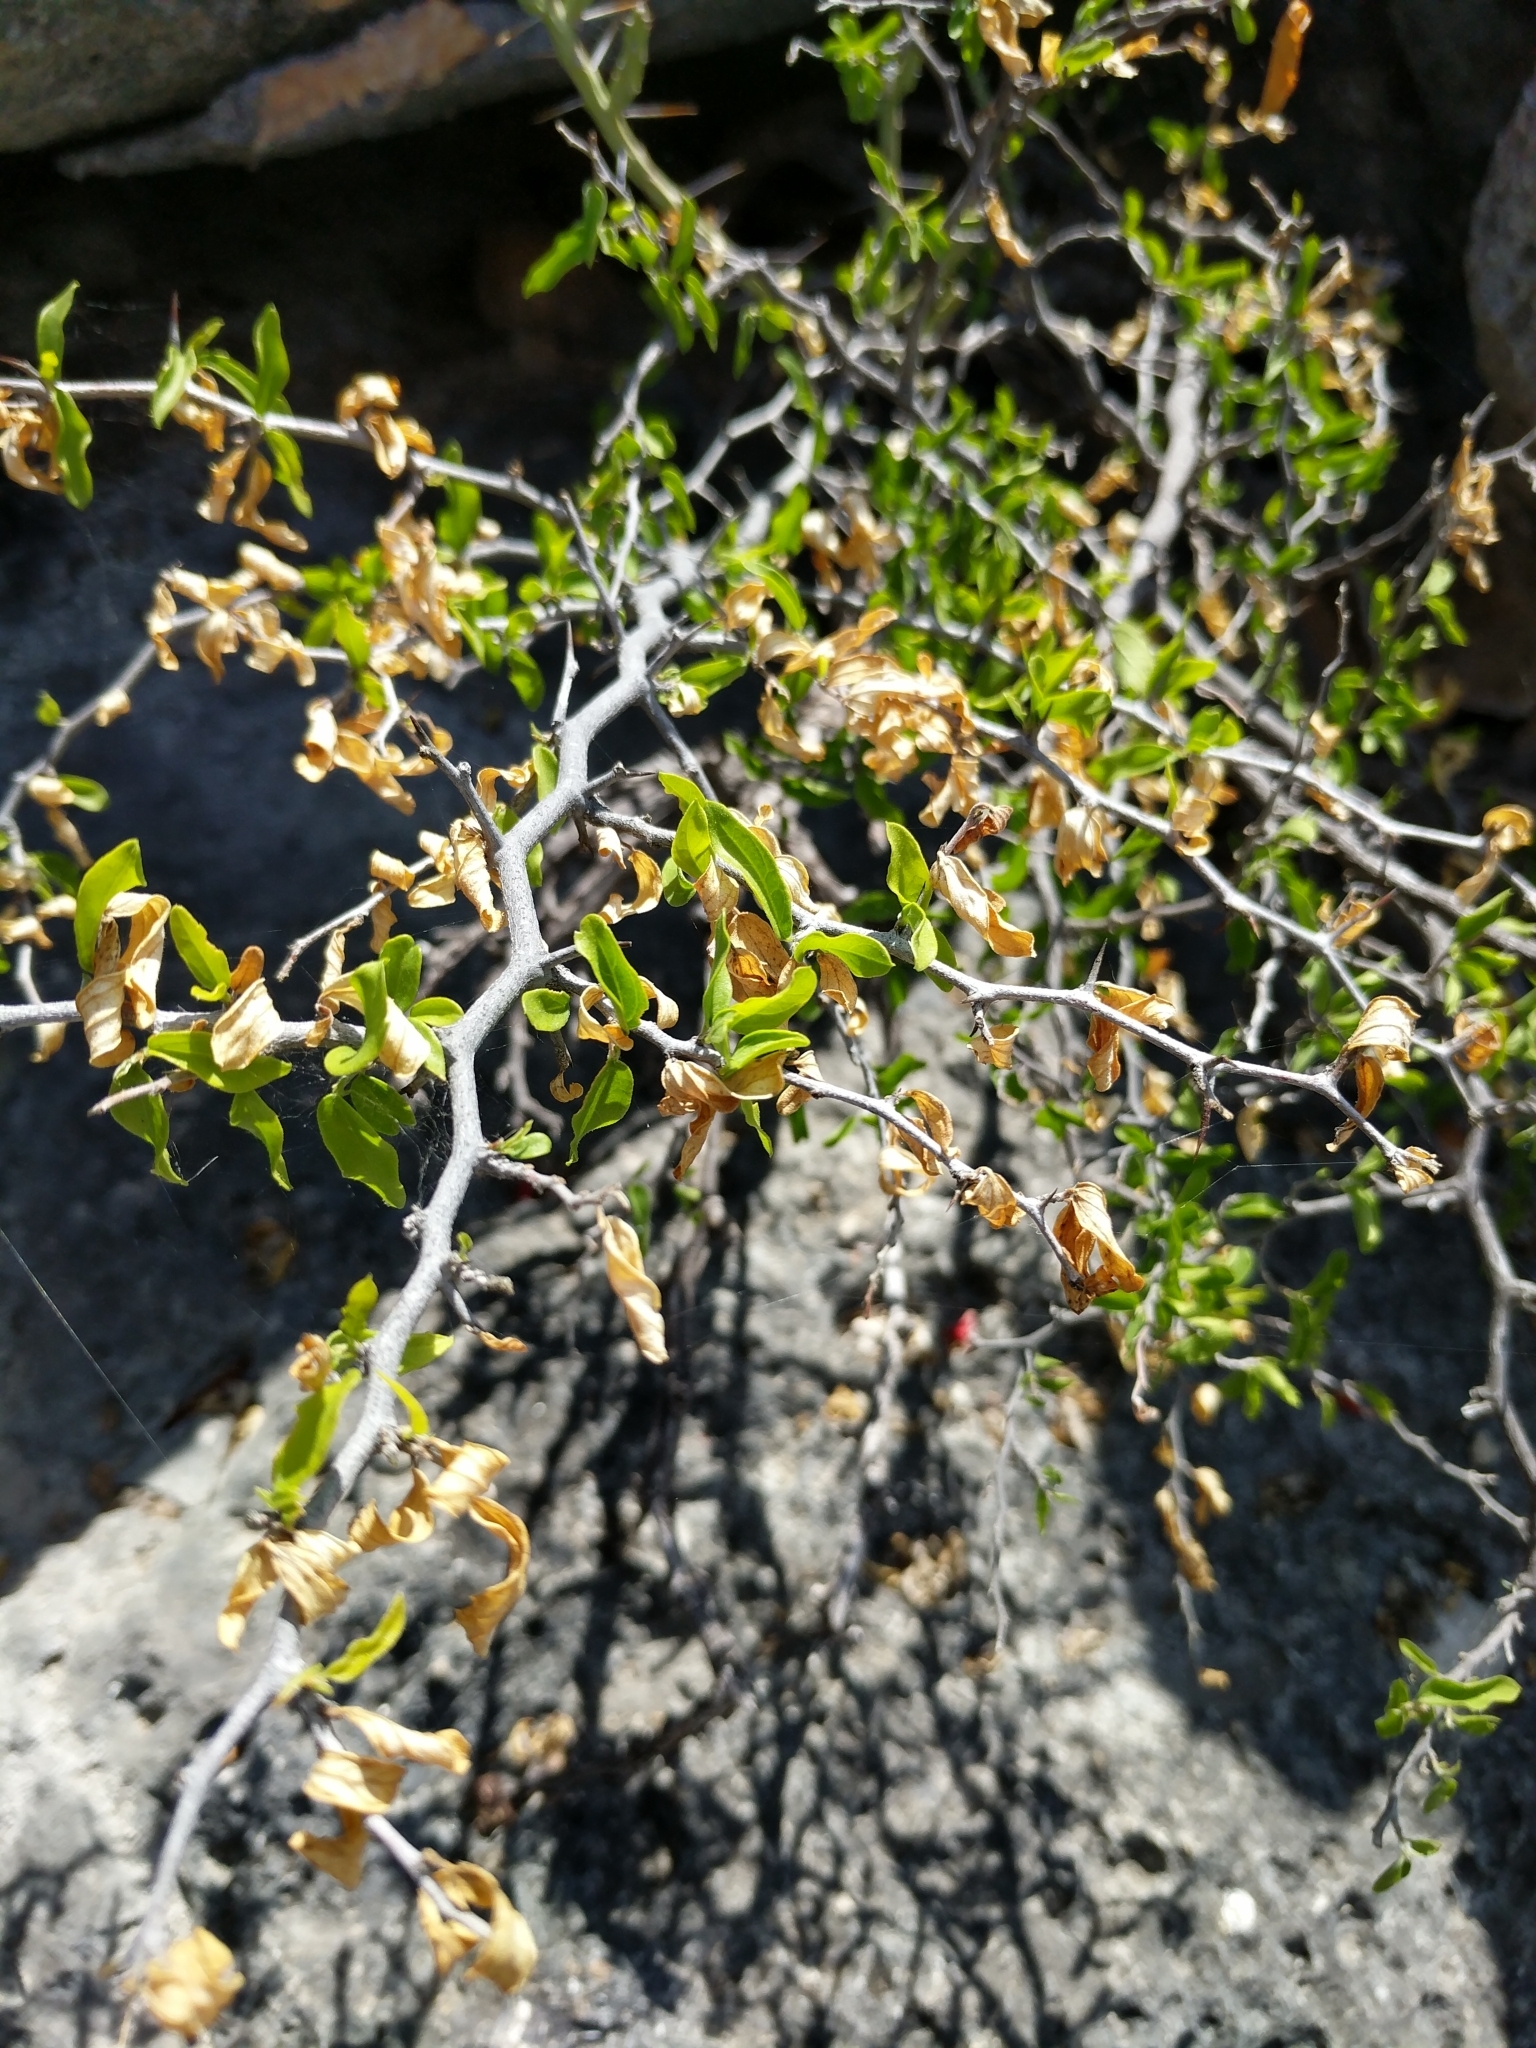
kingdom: Plantae
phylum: Tracheophyta
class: Magnoliopsida
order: Rosales
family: Cannabaceae
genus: Celtis
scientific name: Celtis pallida
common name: Desert hackberry
